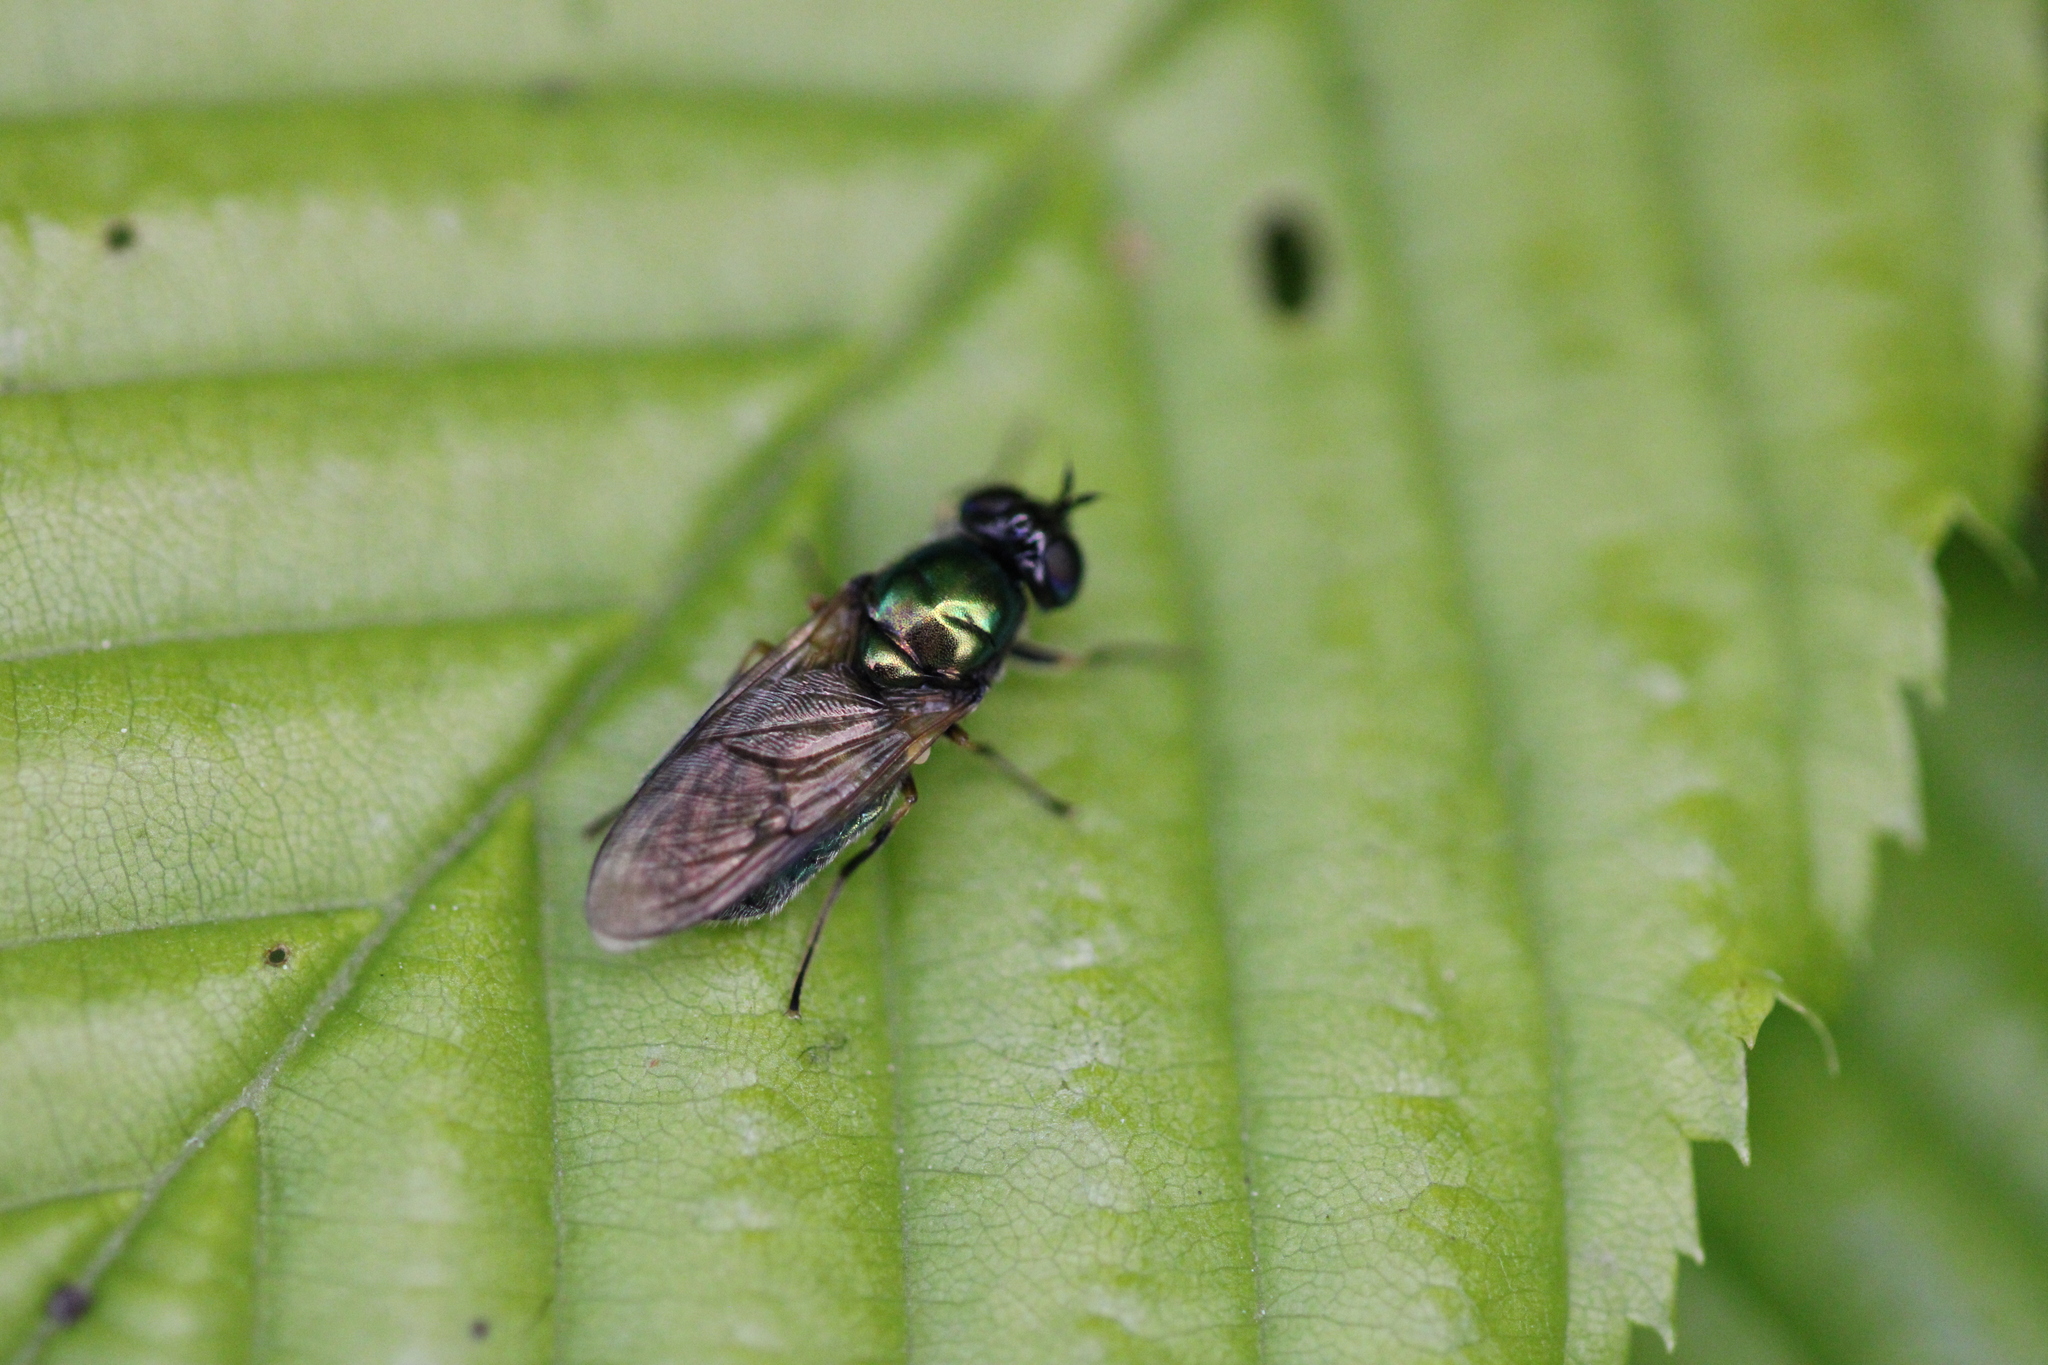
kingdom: Animalia
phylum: Arthropoda
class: Insecta
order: Diptera
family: Stratiomyidae
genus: Chloromyia
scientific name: Chloromyia formosa
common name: Soldier fly
